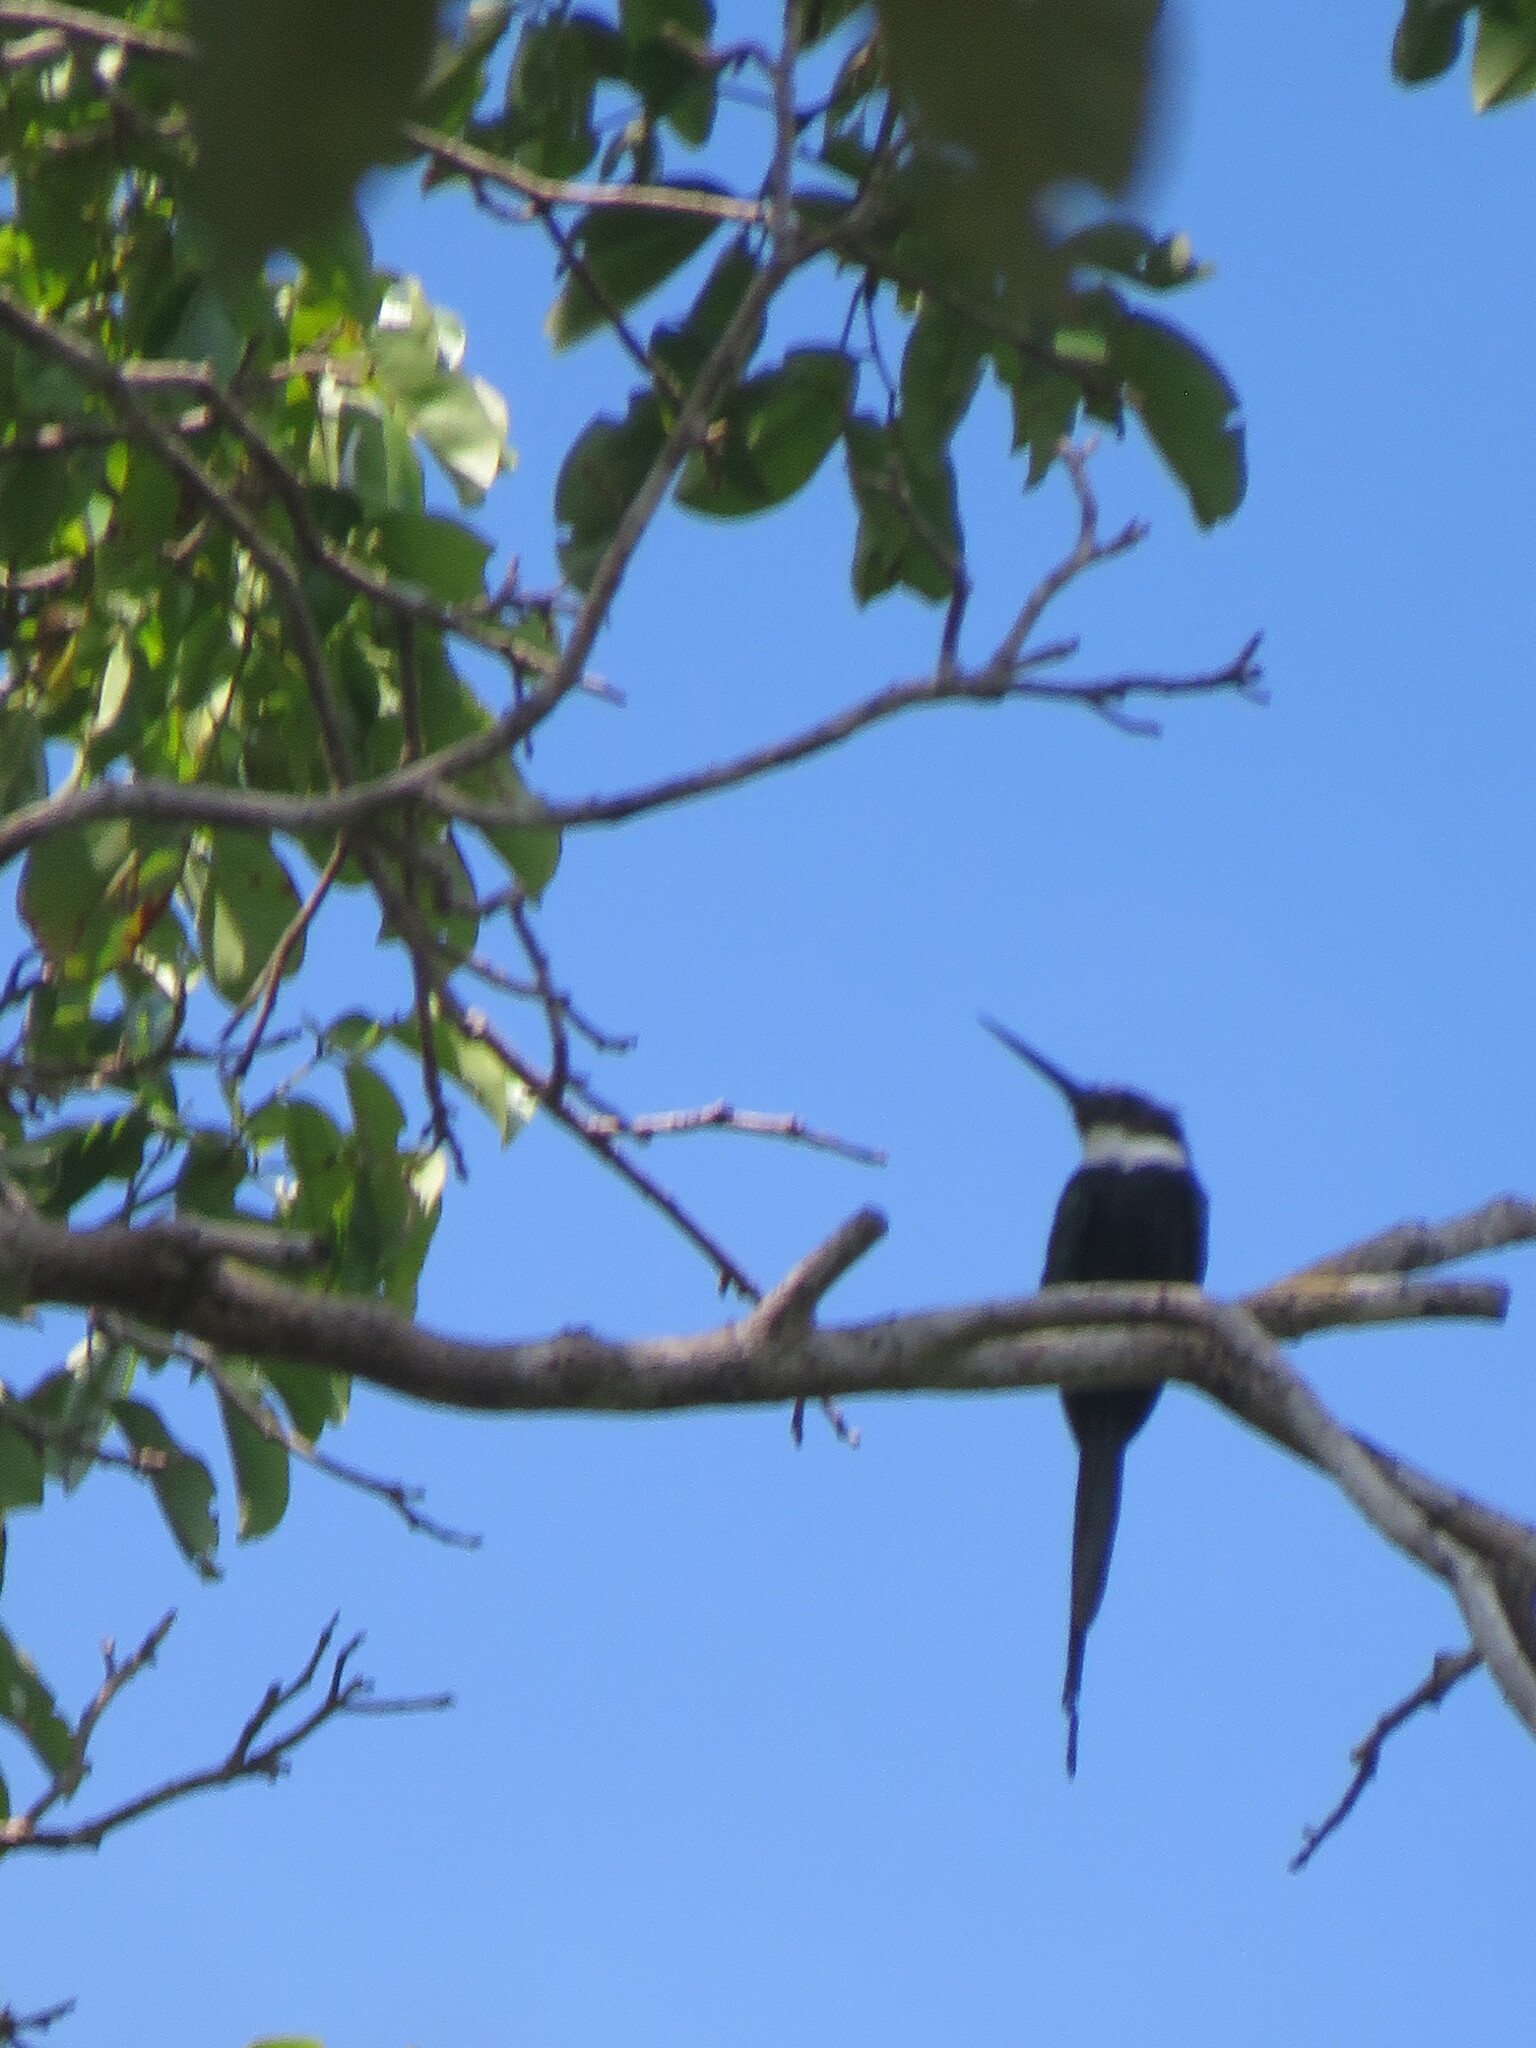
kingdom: Animalia
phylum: Chordata
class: Aves
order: Piciformes
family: Galbulidae
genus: Galbula
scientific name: Galbula dea
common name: Paradise jacamar
